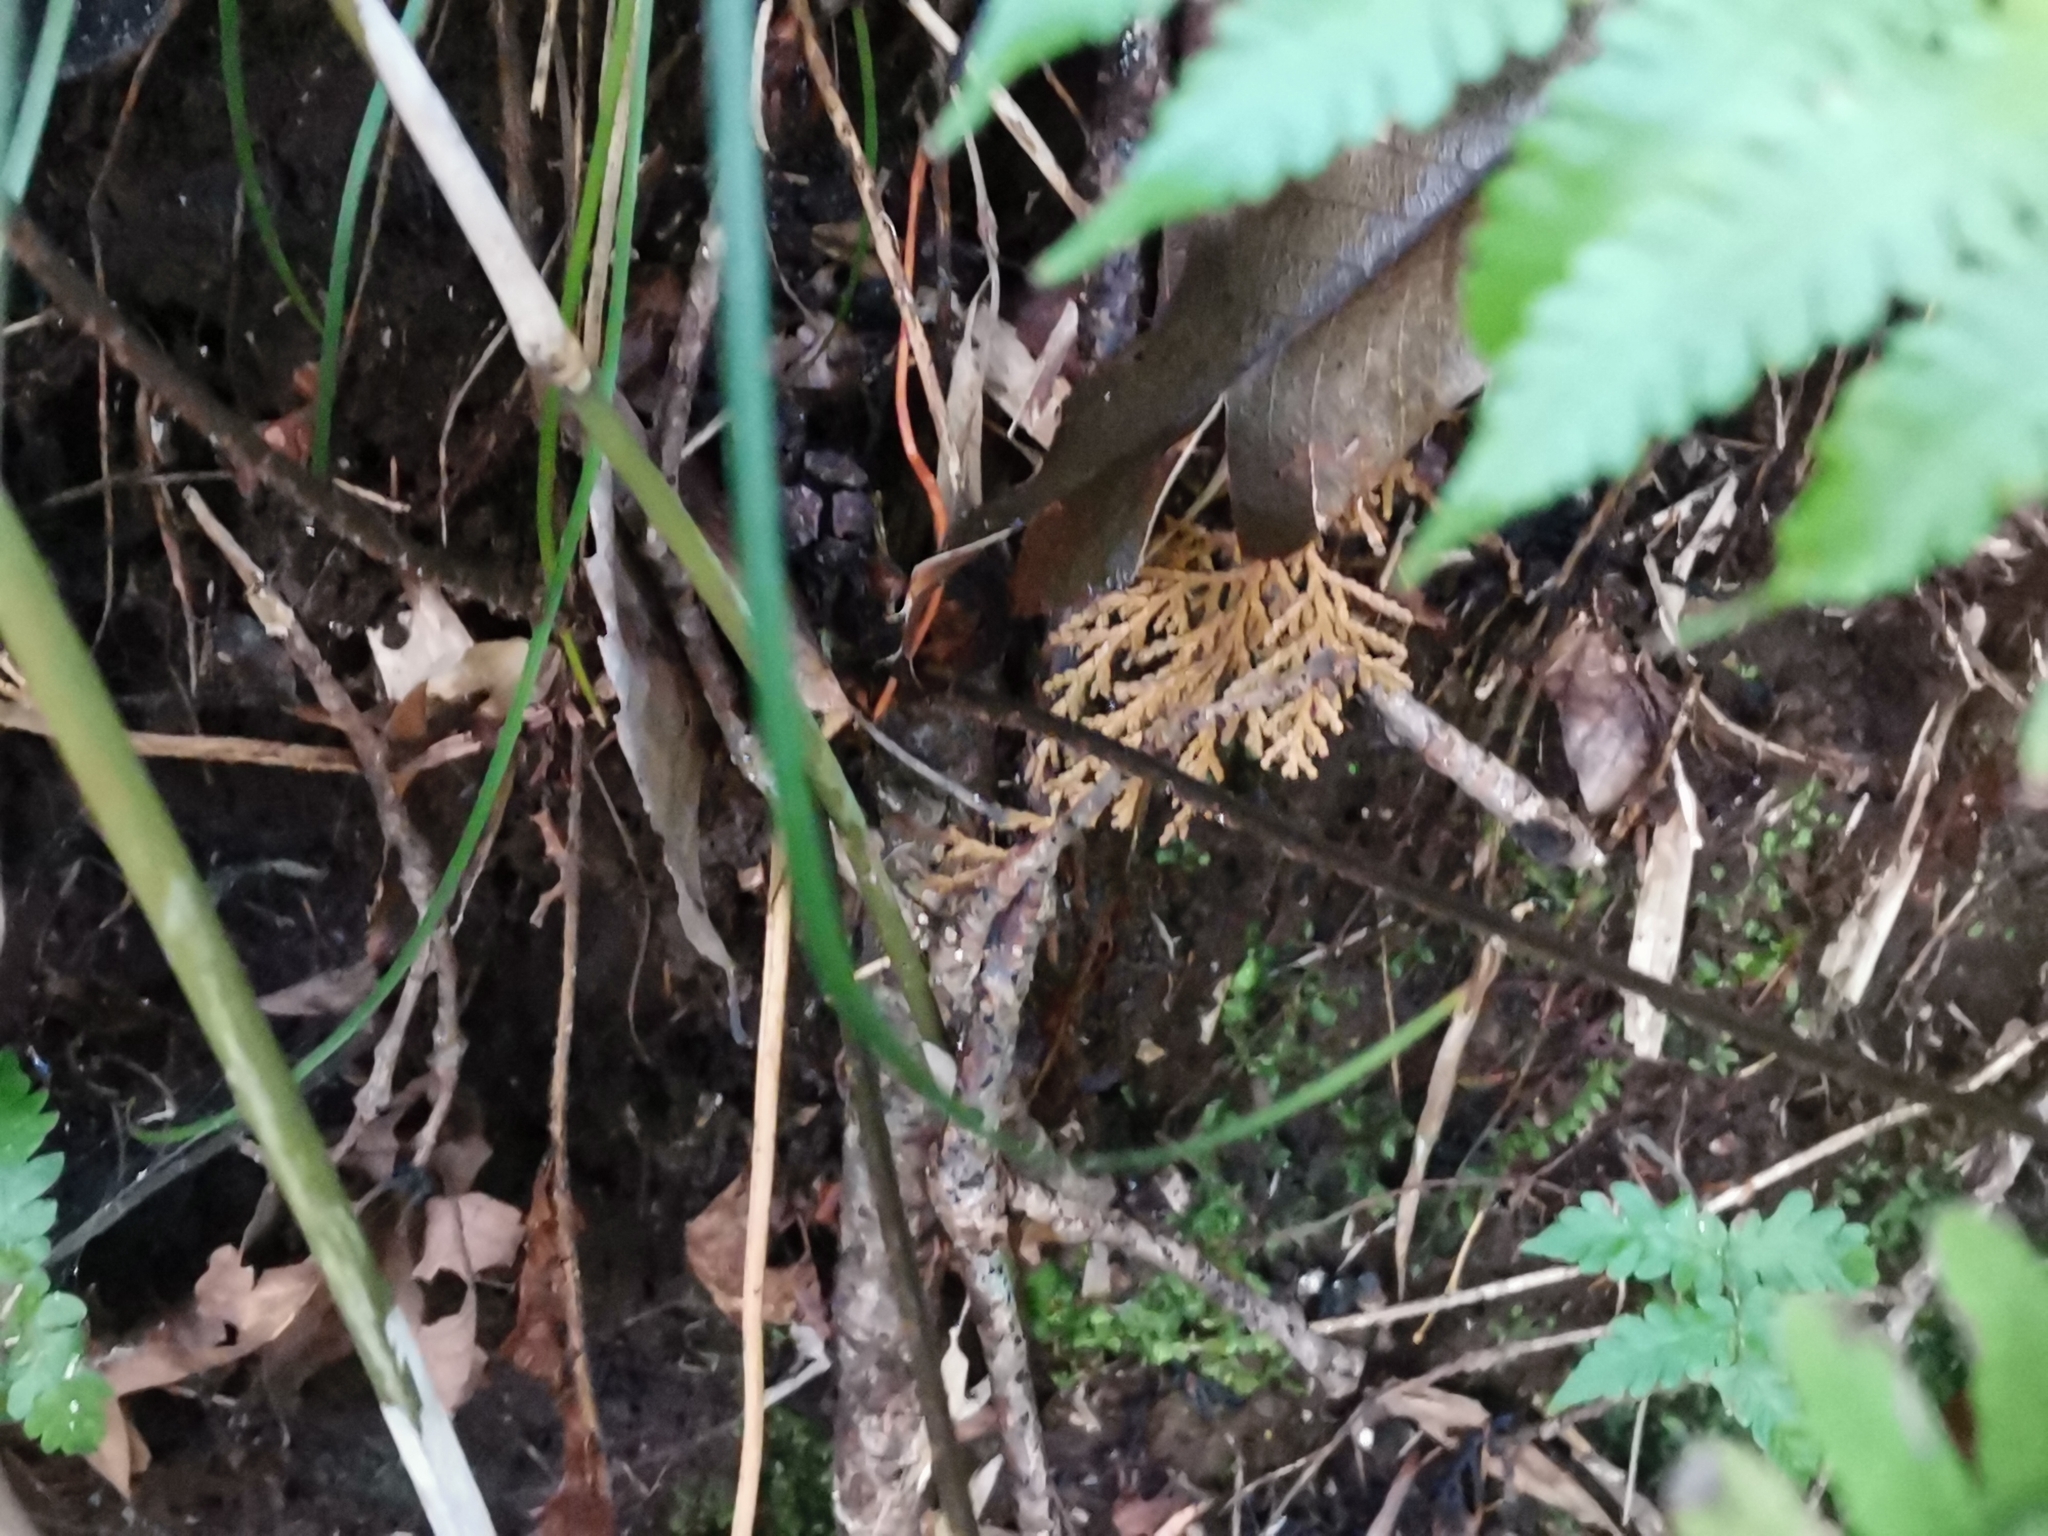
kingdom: Plantae
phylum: Tracheophyta
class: Polypodiopsida
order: Polypodiales
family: Athyriaceae
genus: Athyrium
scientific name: Athyrium wardii
